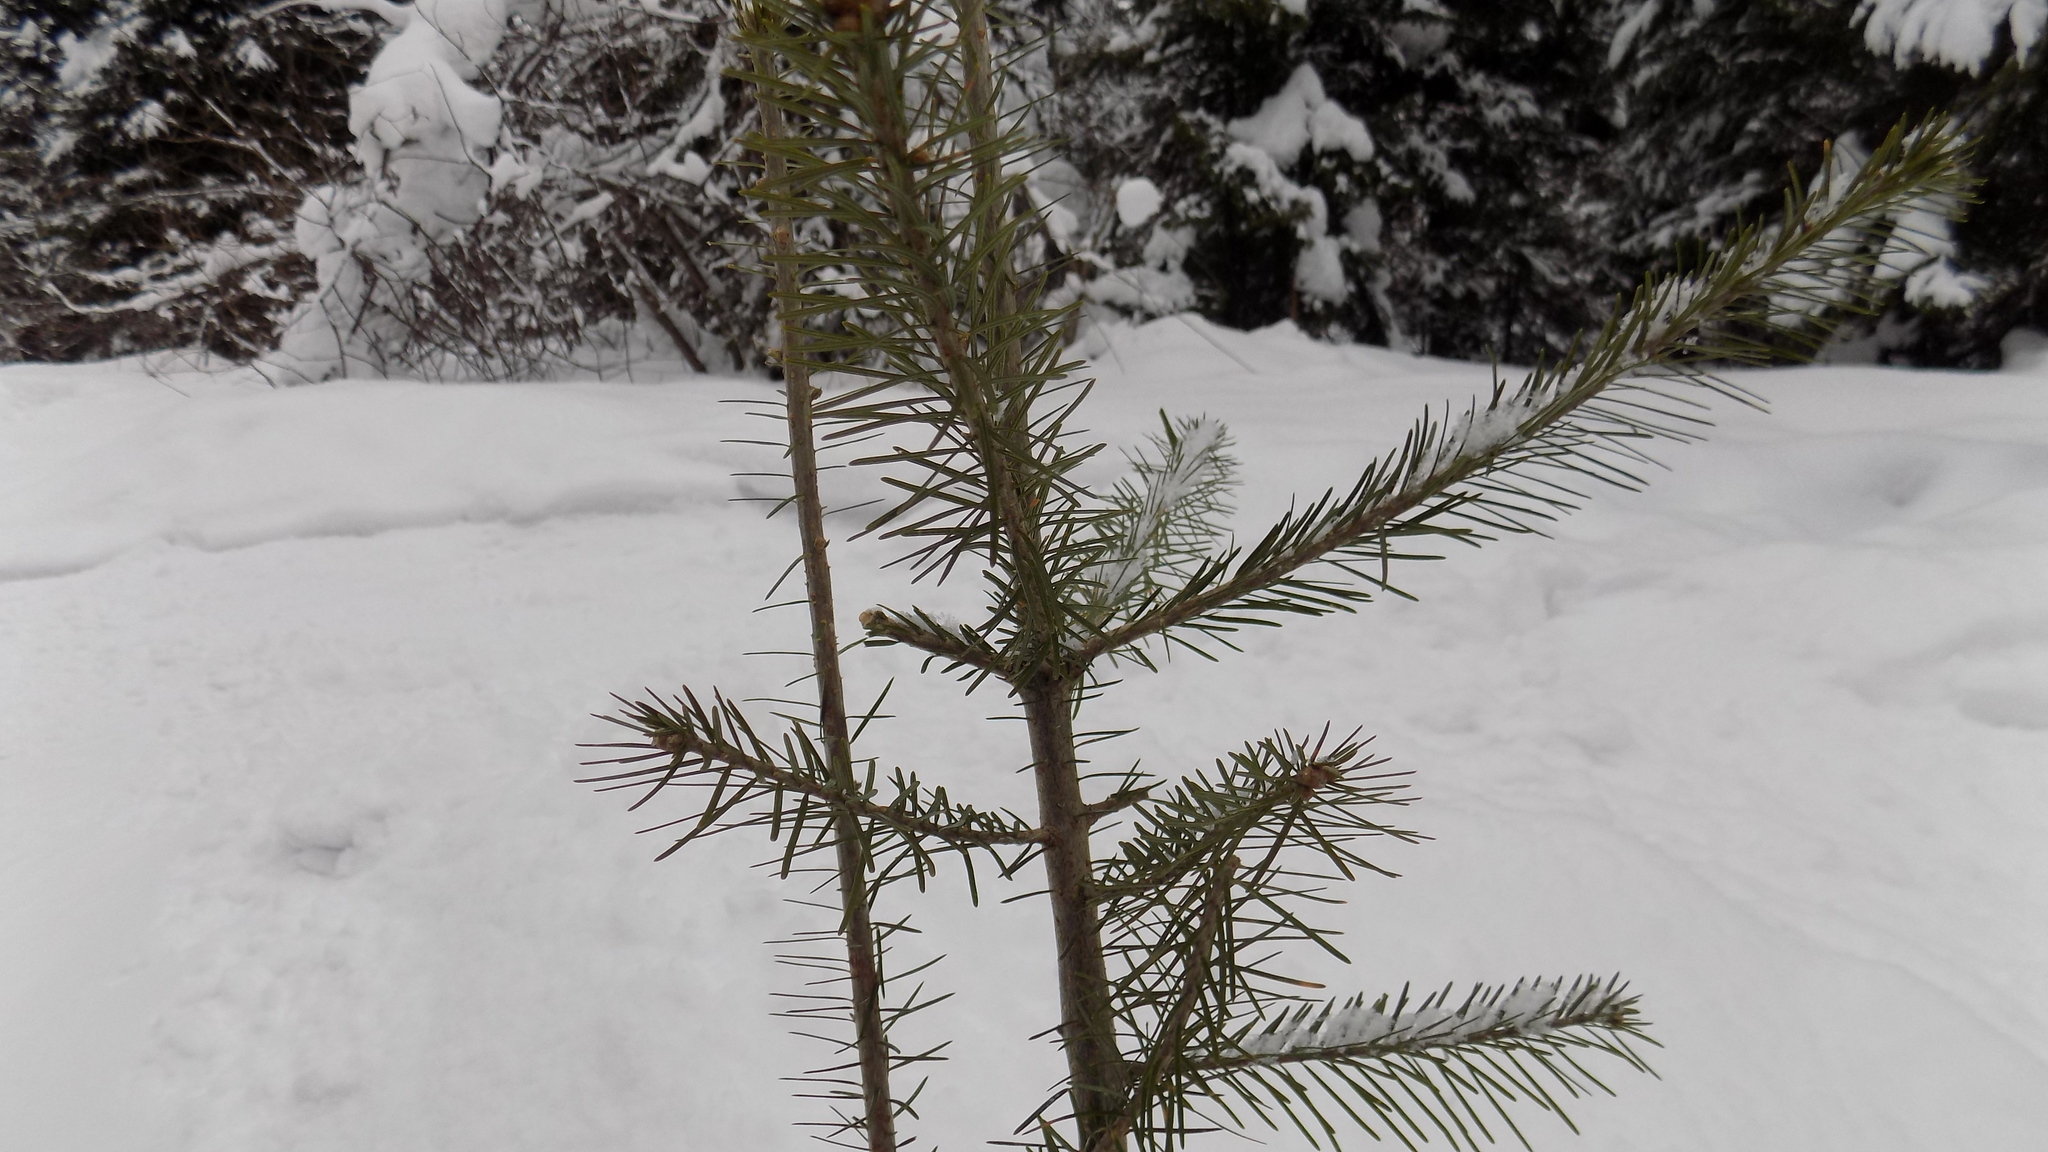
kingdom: Plantae
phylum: Tracheophyta
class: Pinopsida
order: Pinales
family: Pinaceae
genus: Abies
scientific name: Abies sibirica
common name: Siberian fir
